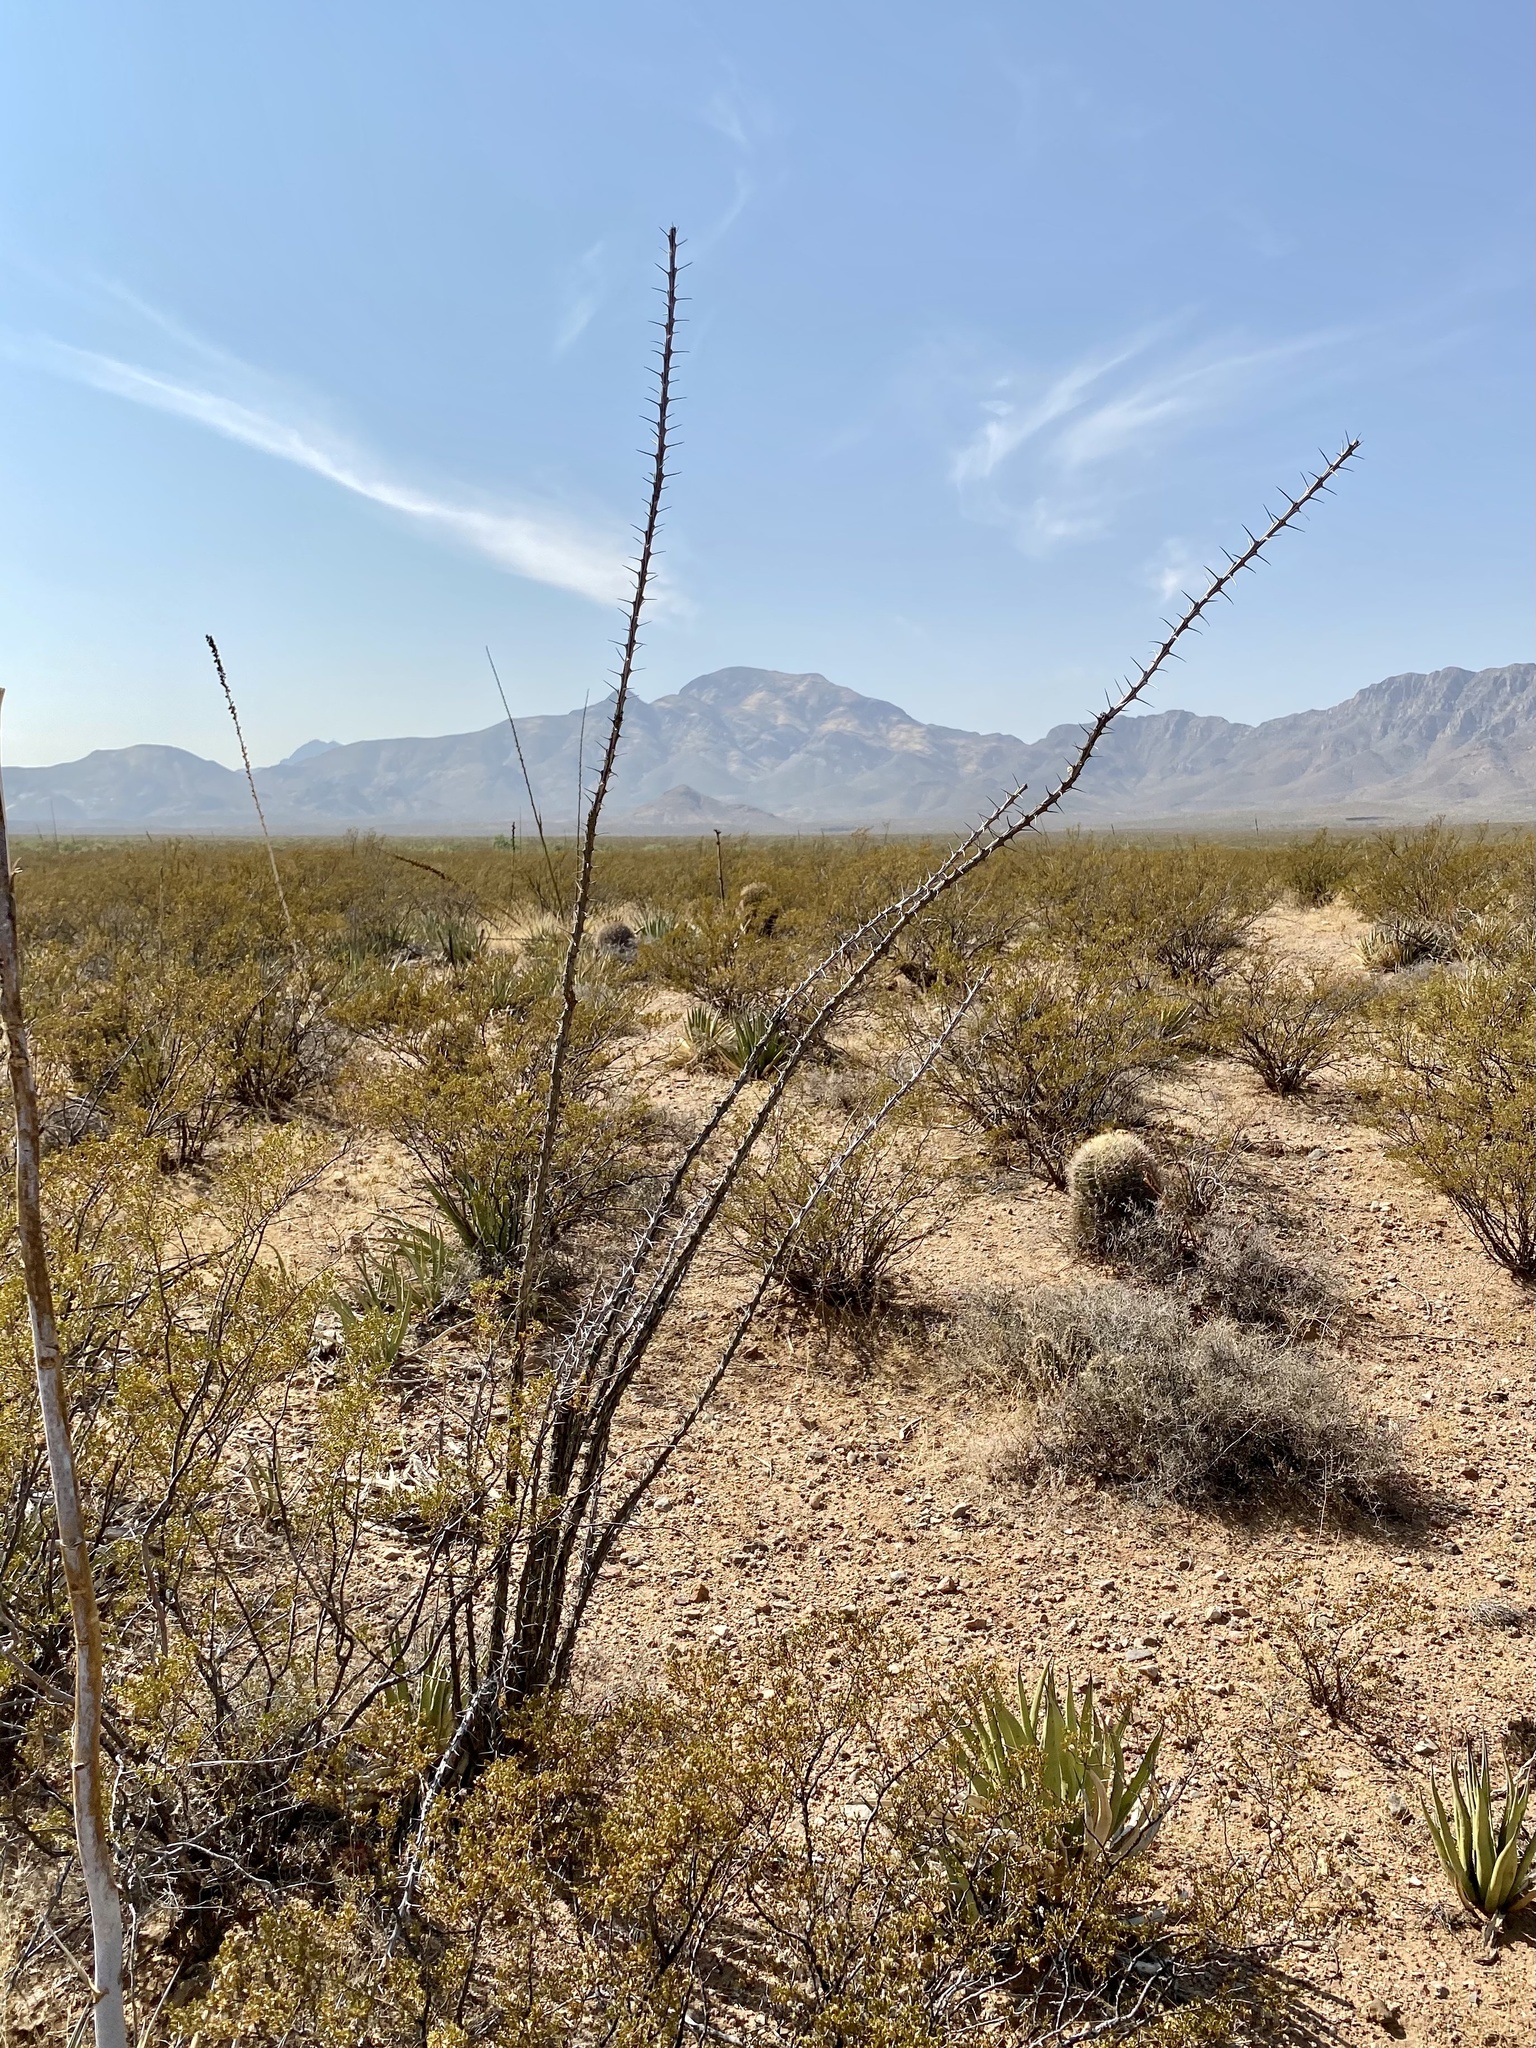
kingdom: Plantae
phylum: Tracheophyta
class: Magnoliopsida
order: Ericales
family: Fouquieriaceae
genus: Fouquieria
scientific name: Fouquieria splendens
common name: Vine-cactus
